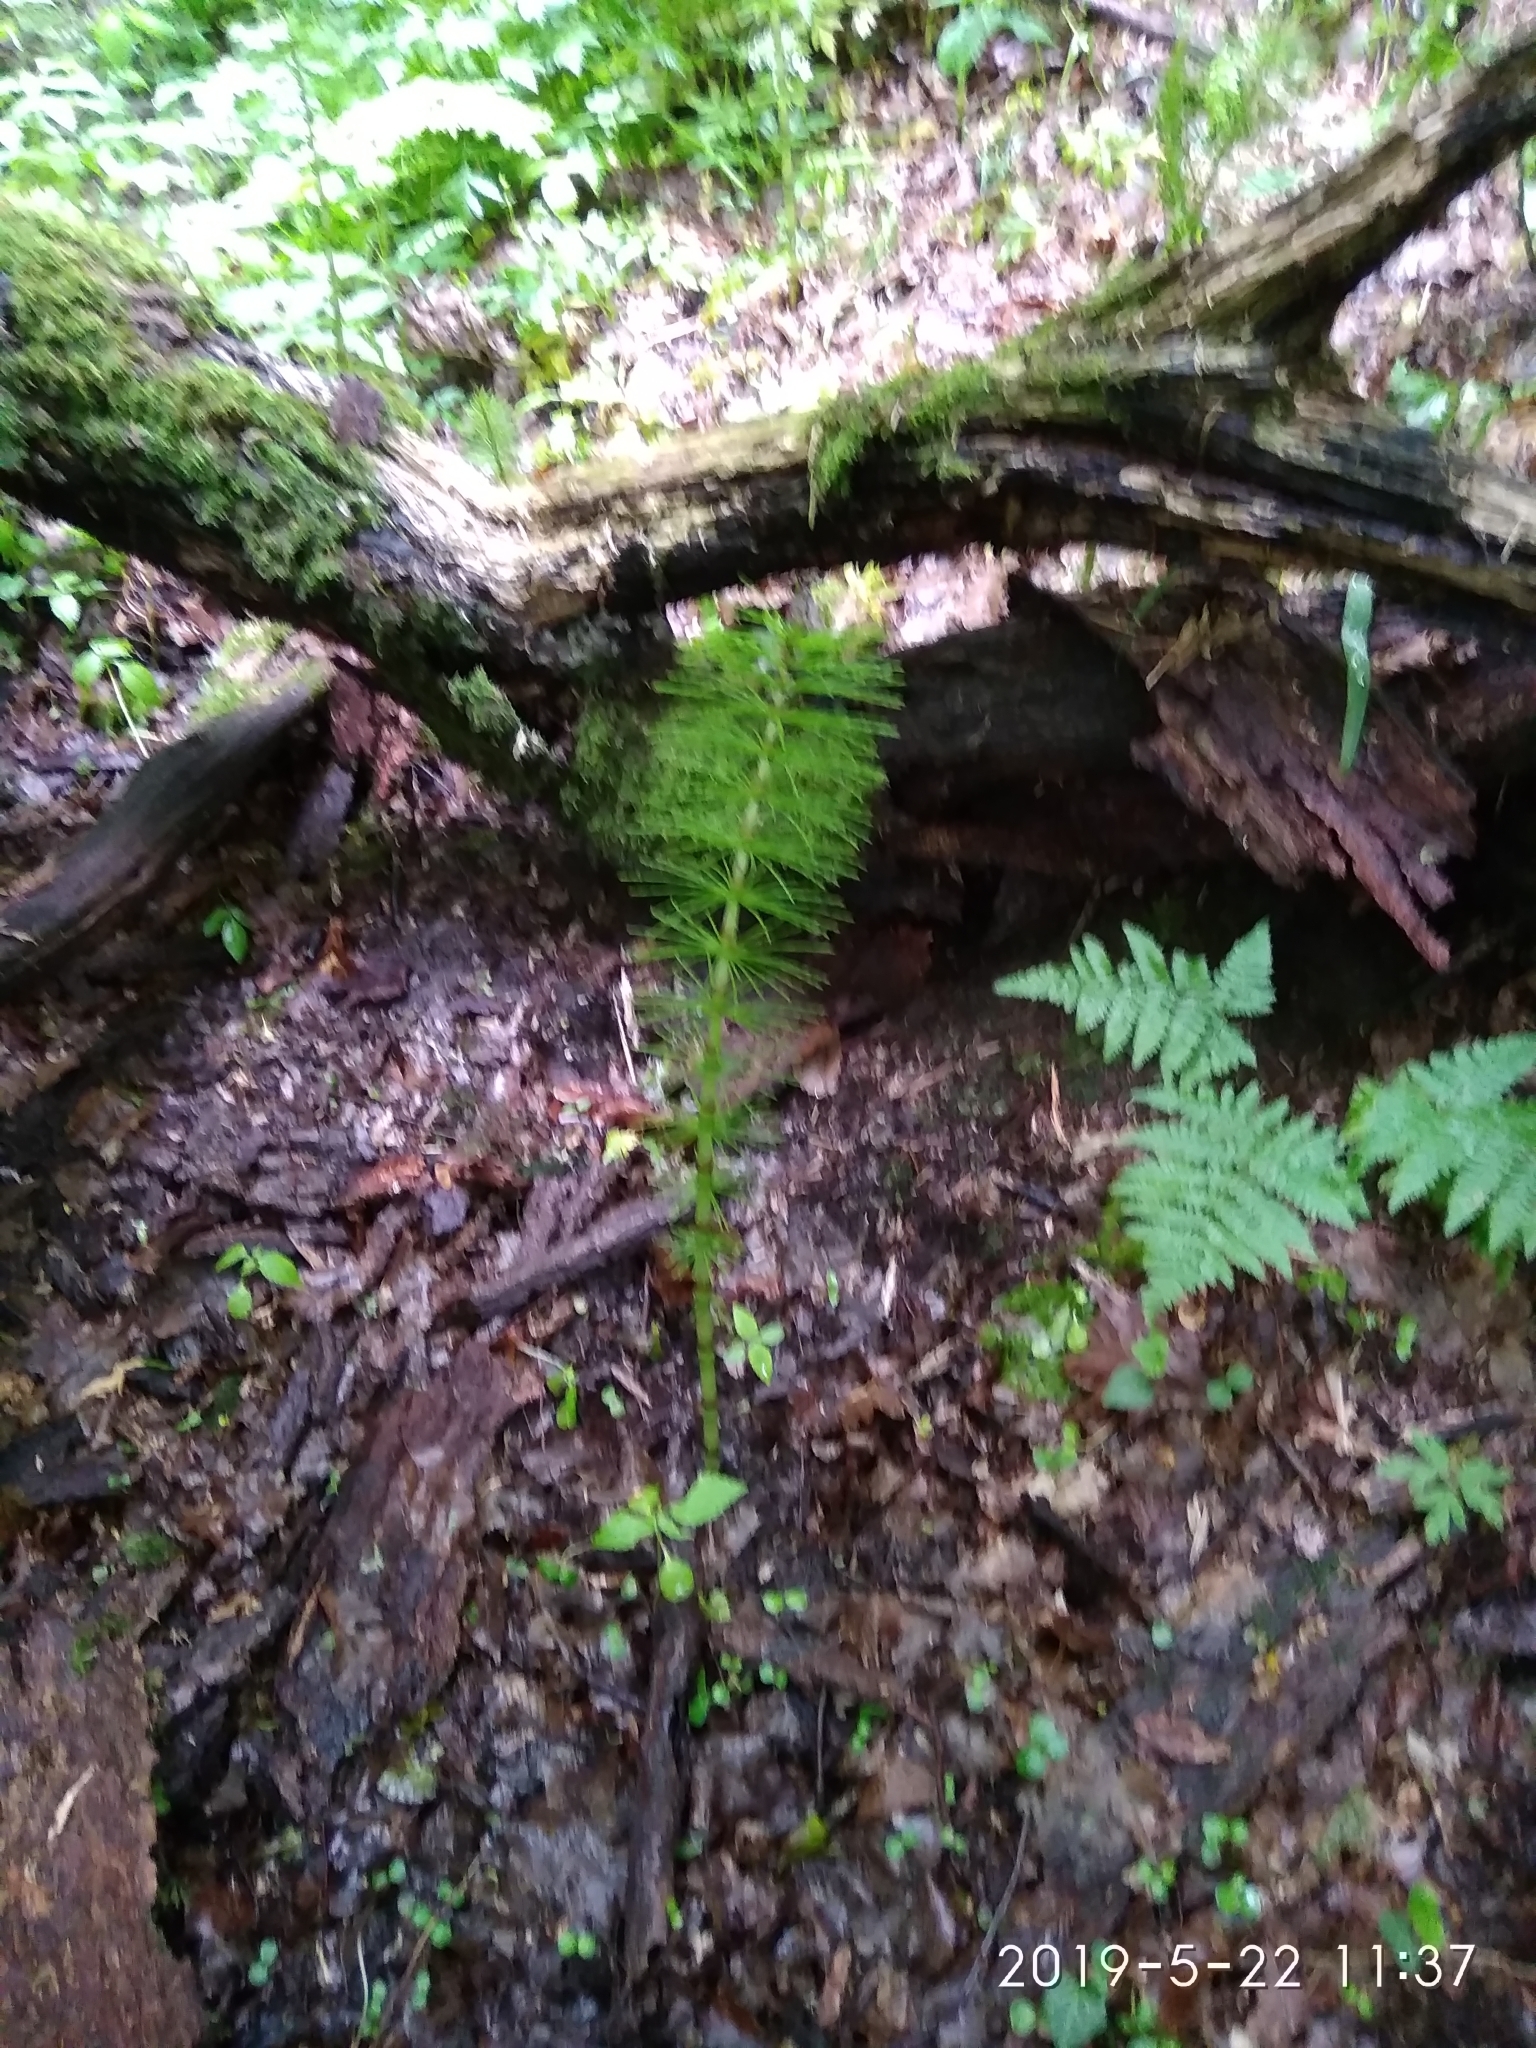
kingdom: Plantae
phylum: Tracheophyta
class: Polypodiopsida
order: Equisetales
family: Equisetaceae
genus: Equisetum
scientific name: Equisetum telmateia
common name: Great horsetail
